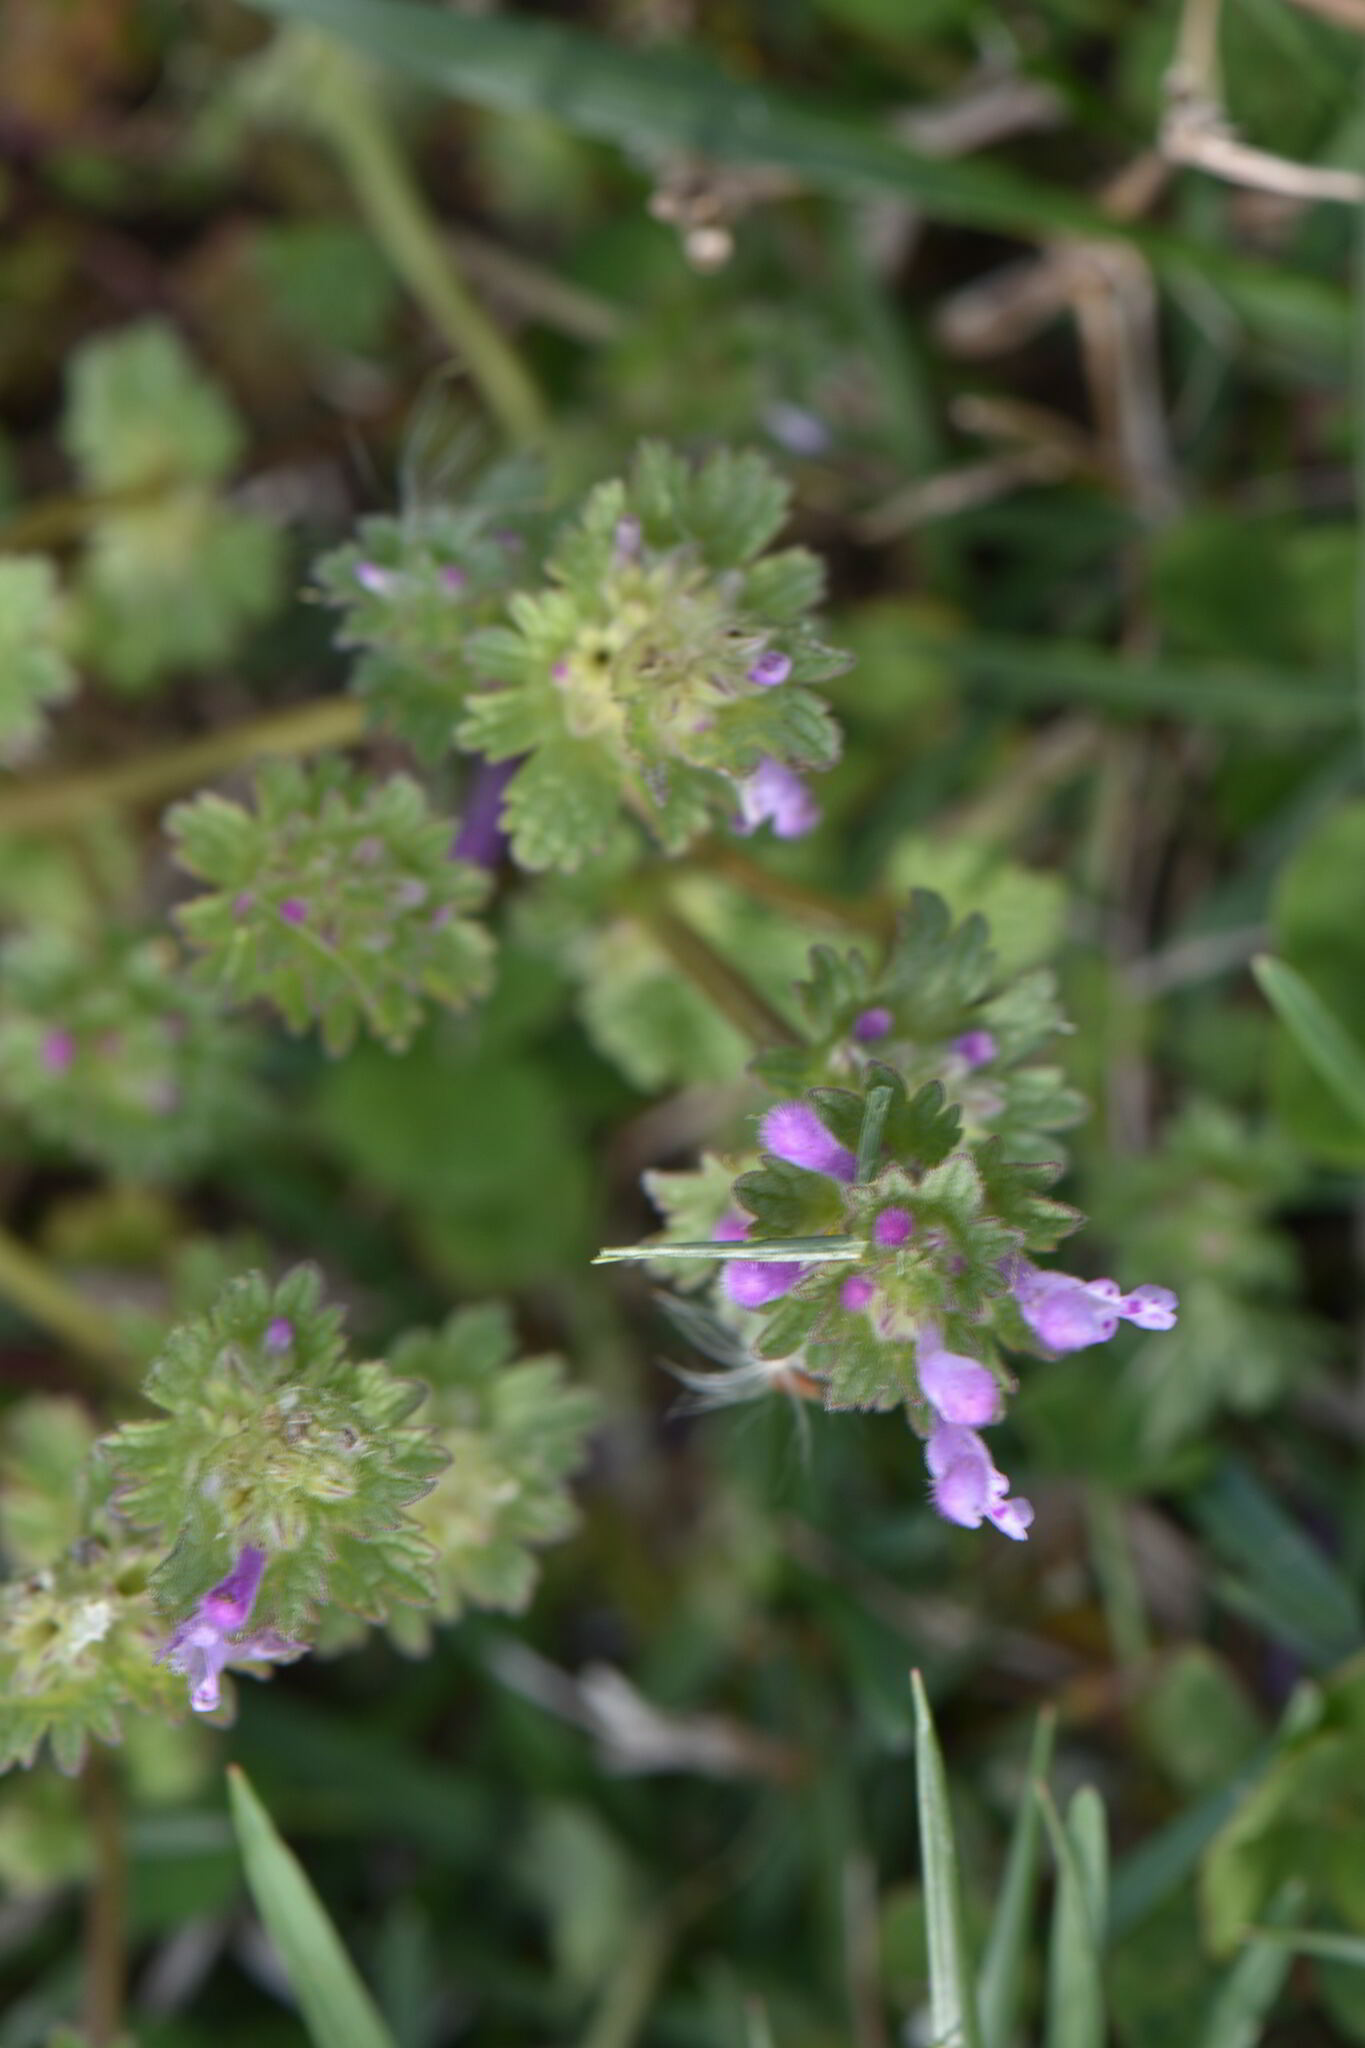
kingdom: Plantae
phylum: Tracheophyta
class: Magnoliopsida
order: Lamiales
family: Lamiaceae
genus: Lamium
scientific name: Lamium amplexicaule
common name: Henbit dead-nettle
